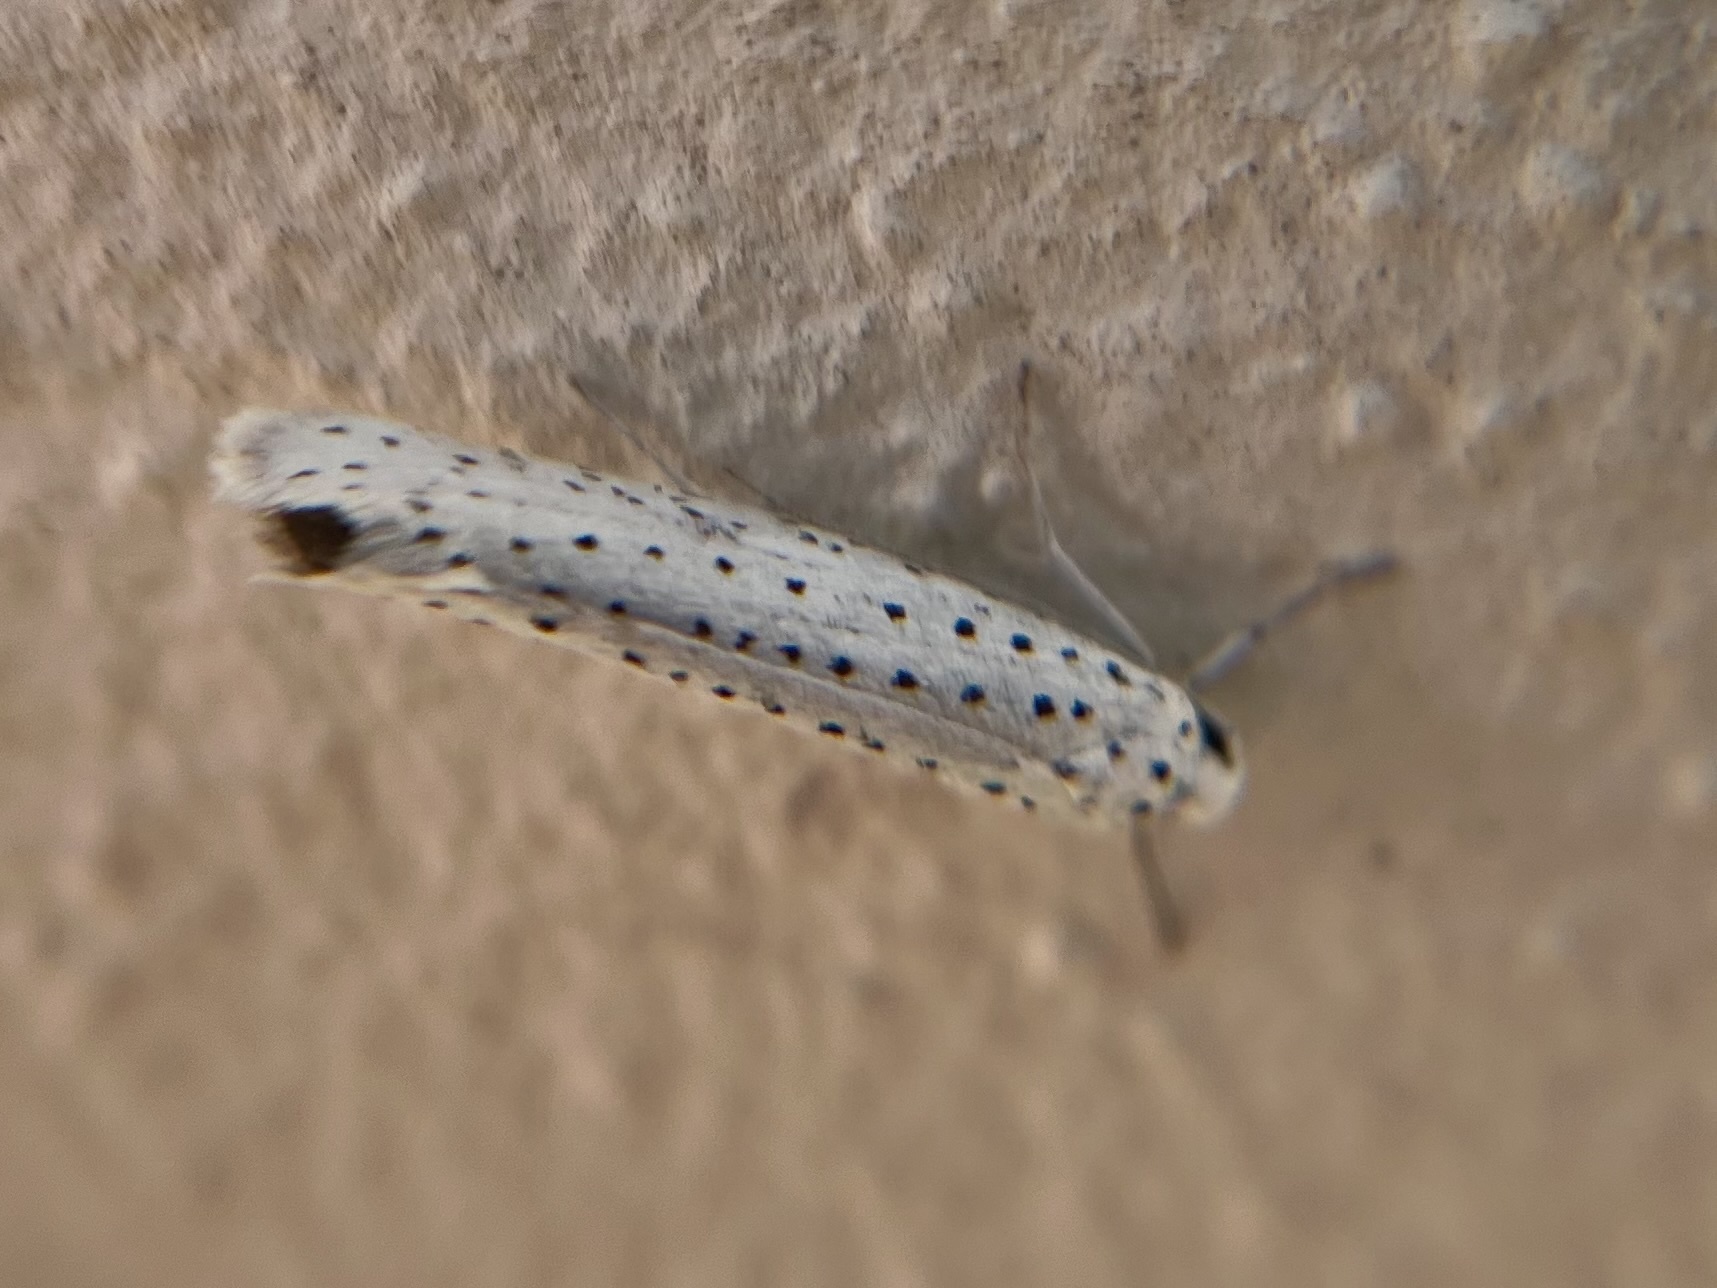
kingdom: Animalia
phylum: Arthropoda
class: Insecta
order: Lepidoptera
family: Yponomeutidae
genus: Yponomeuta
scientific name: Yponomeuta evonymella
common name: Bird-cherry ermine
